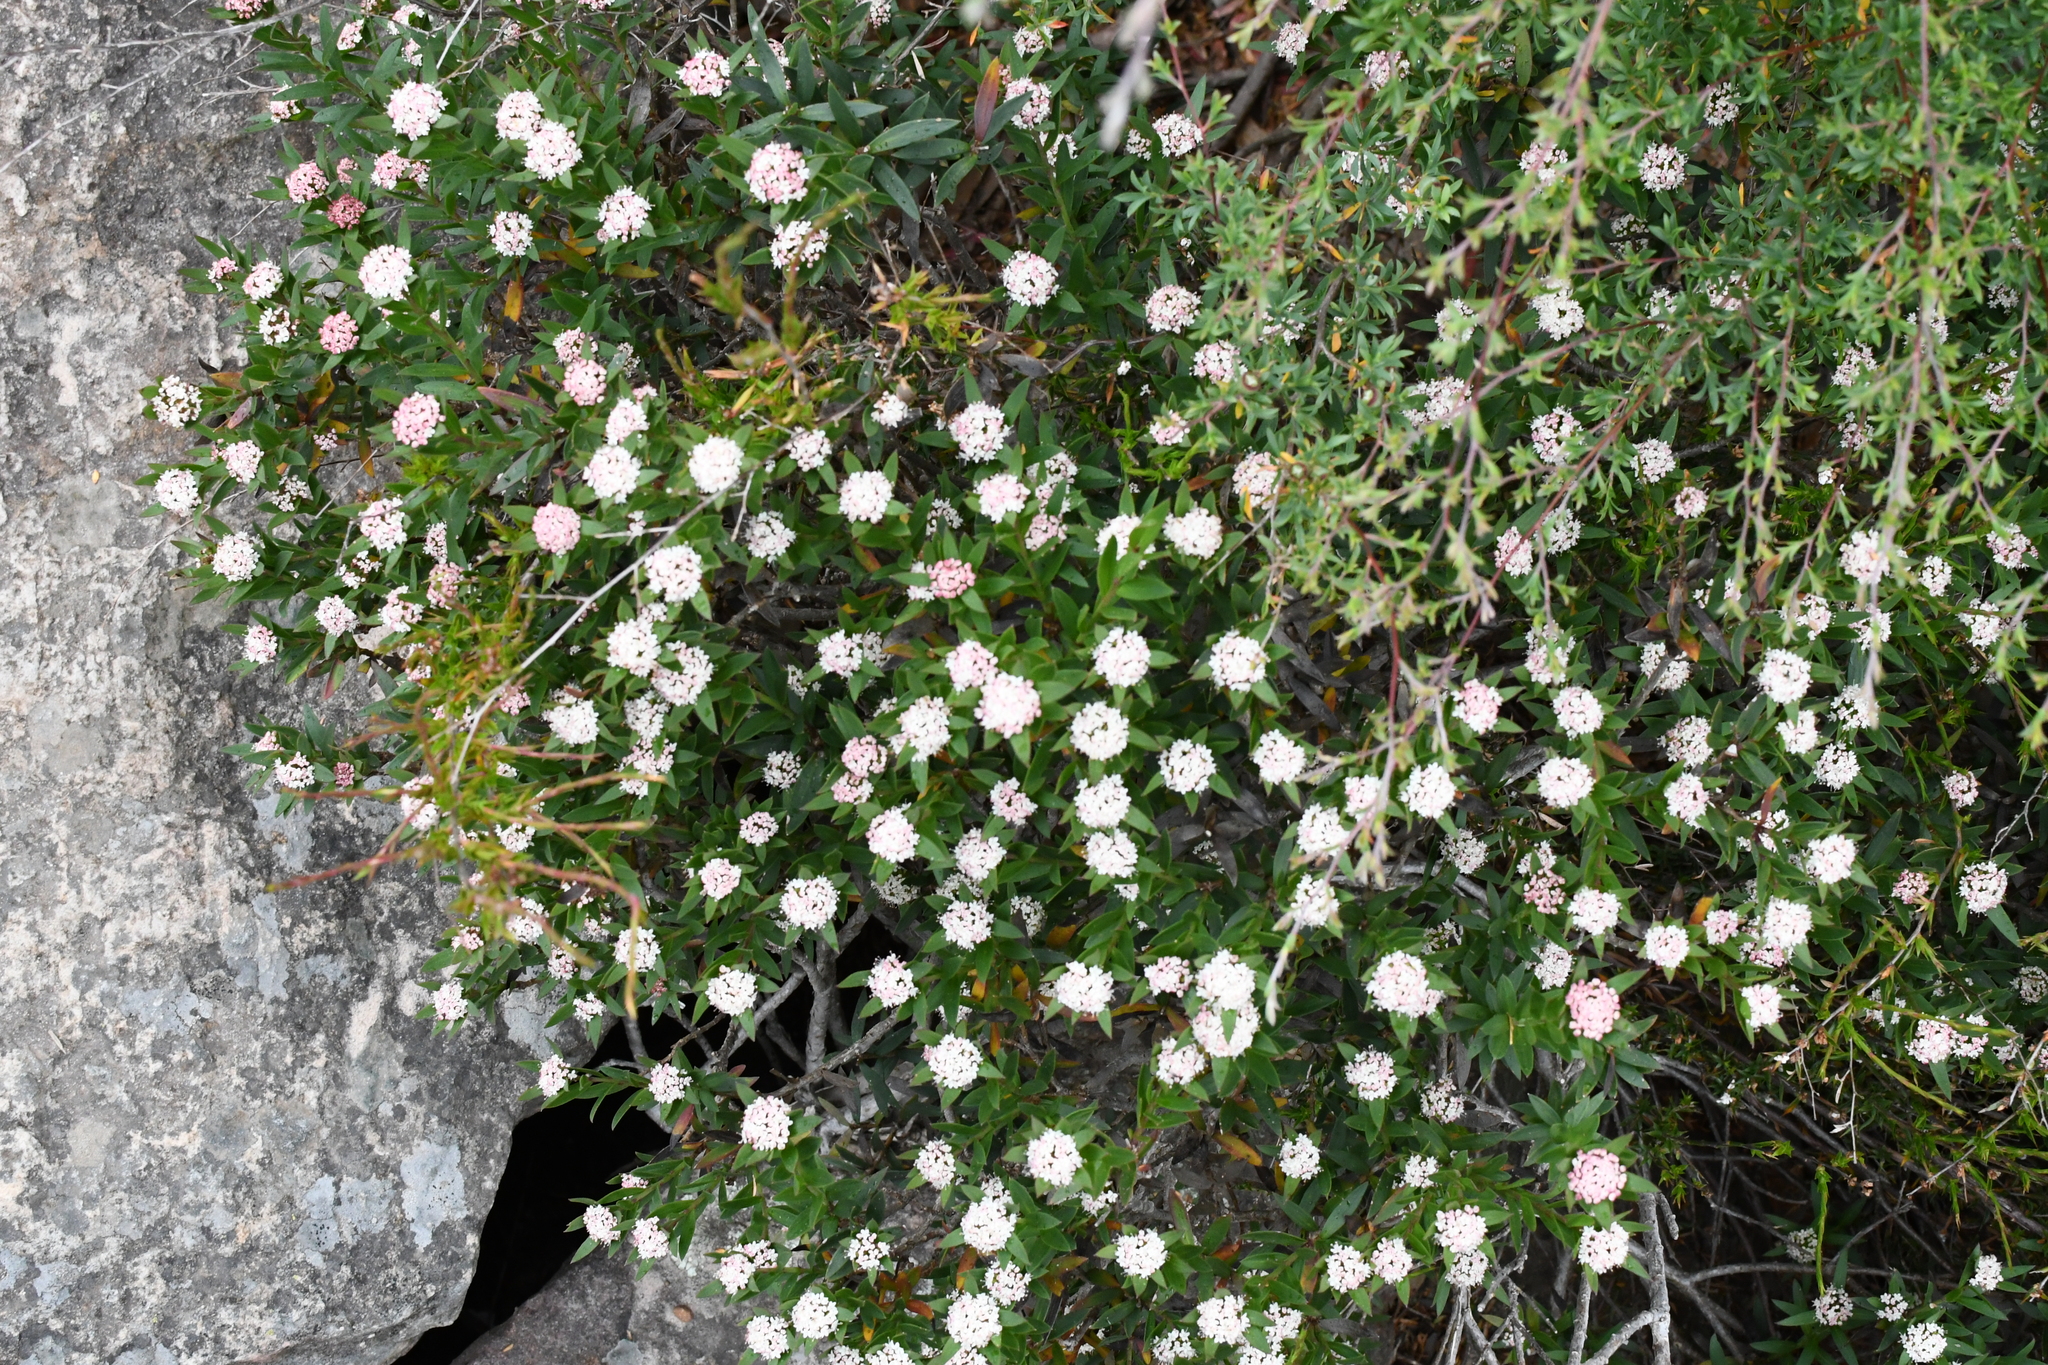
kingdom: Plantae
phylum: Tracheophyta
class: Magnoliopsida
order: Apiales
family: Apiaceae
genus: Platysace
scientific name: Platysace lanceolata
